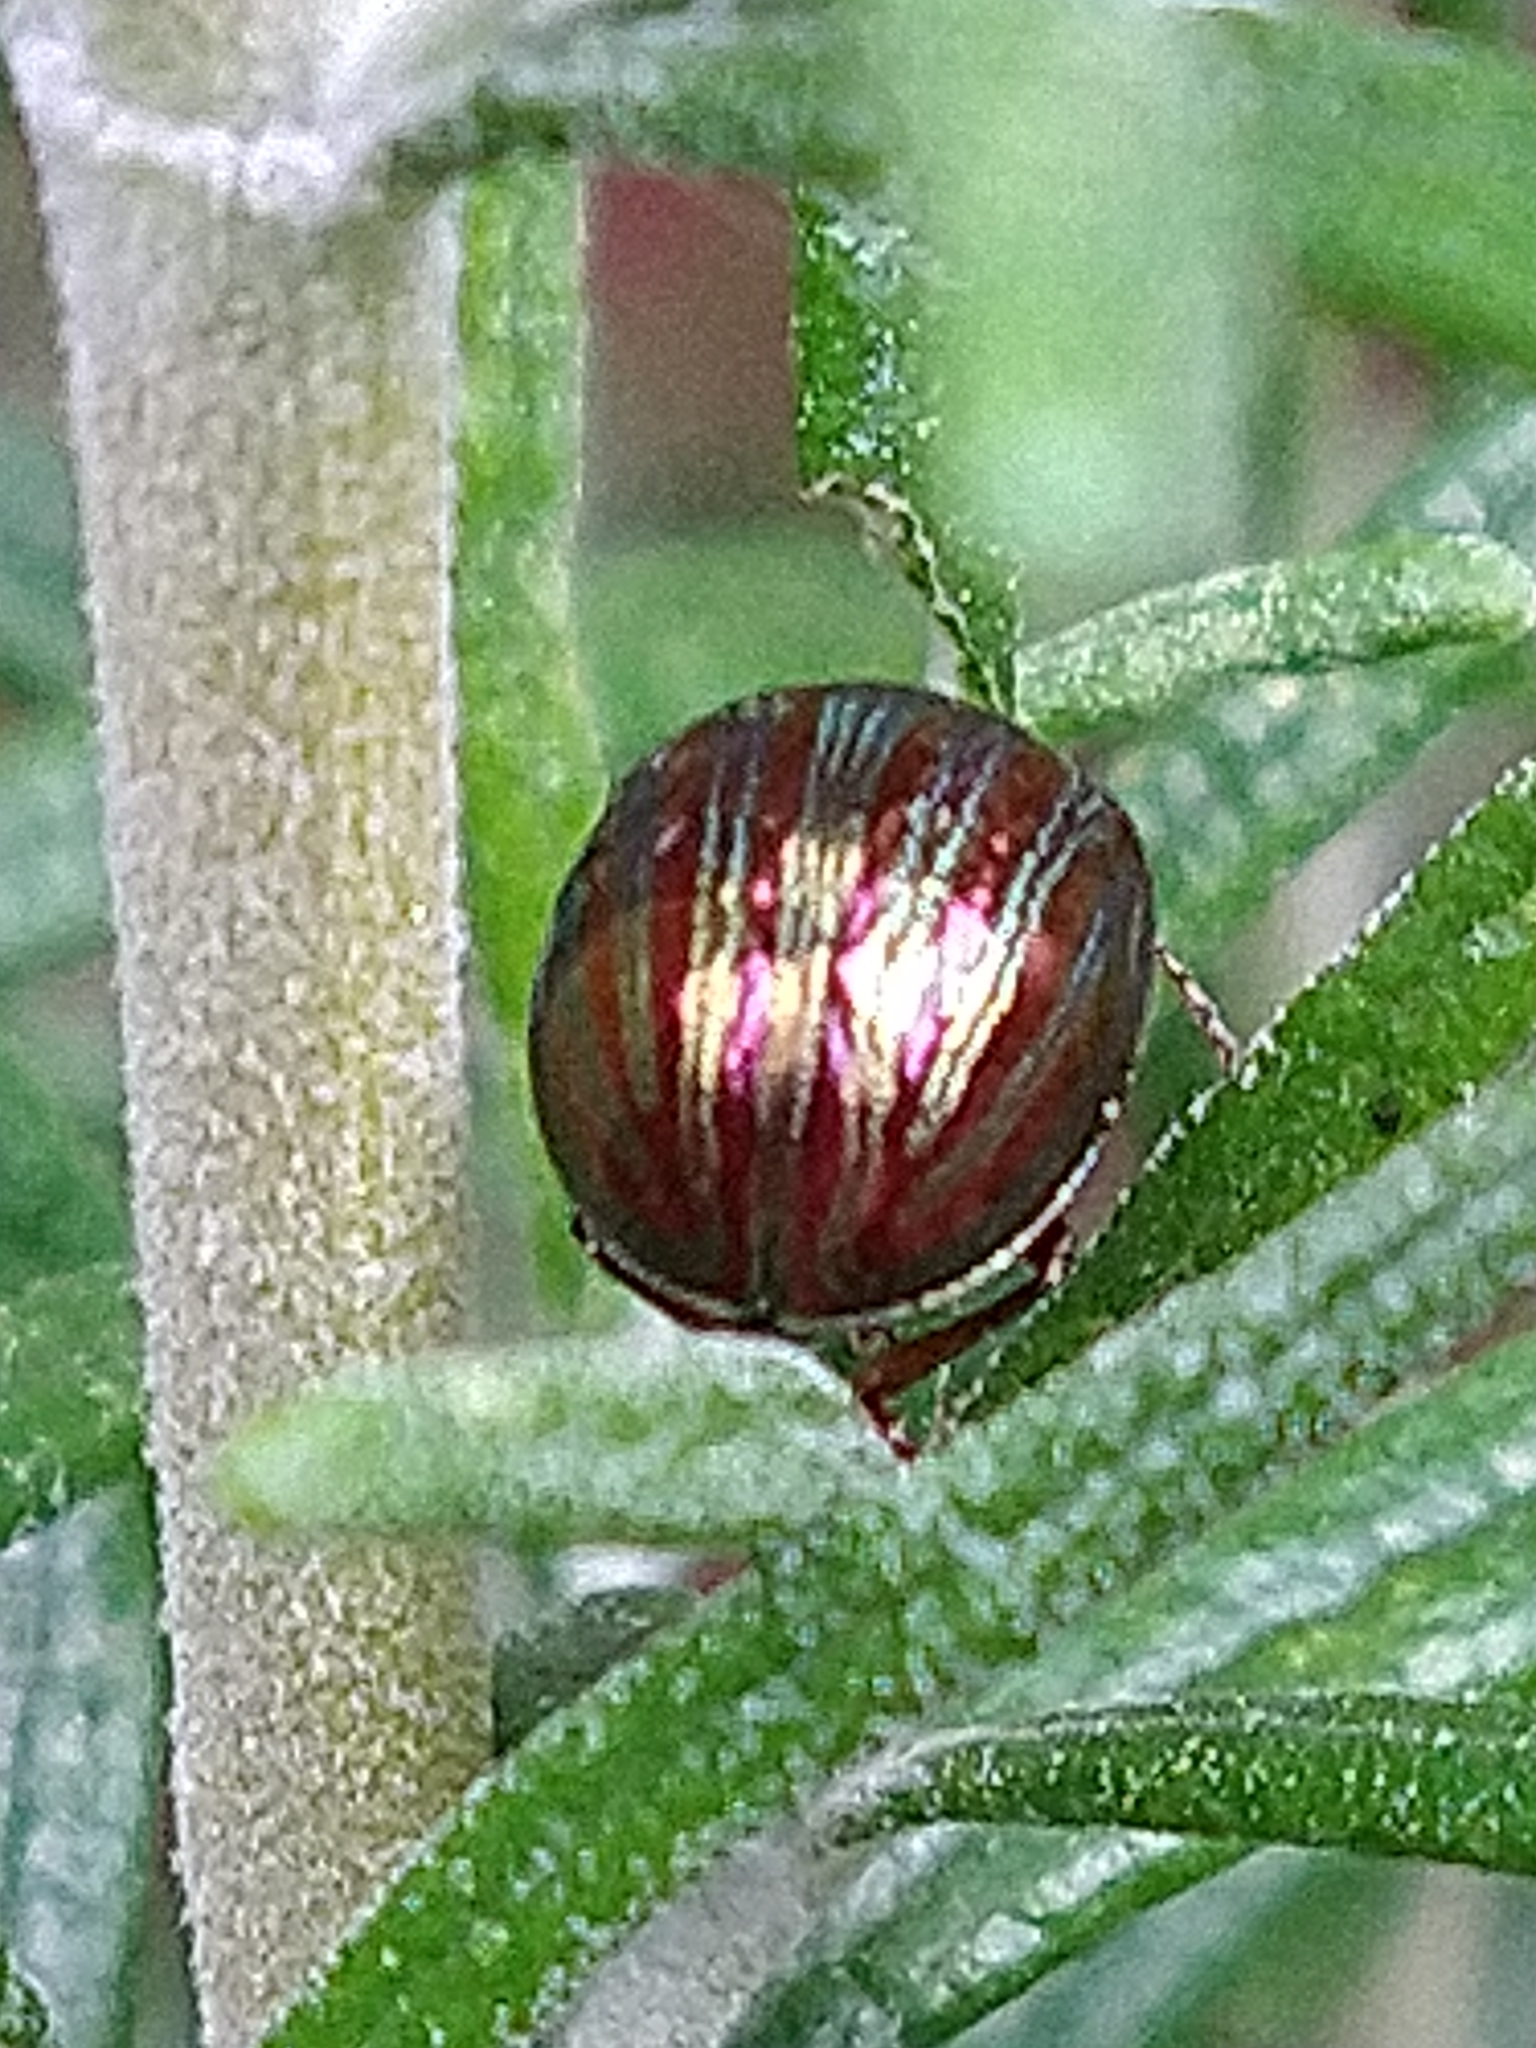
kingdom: Animalia
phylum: Arthropoda
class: Insecta
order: Coleoptera
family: Chrysomelidae
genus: Chrysolina
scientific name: Chrysolina americana
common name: Rosemary beetle
